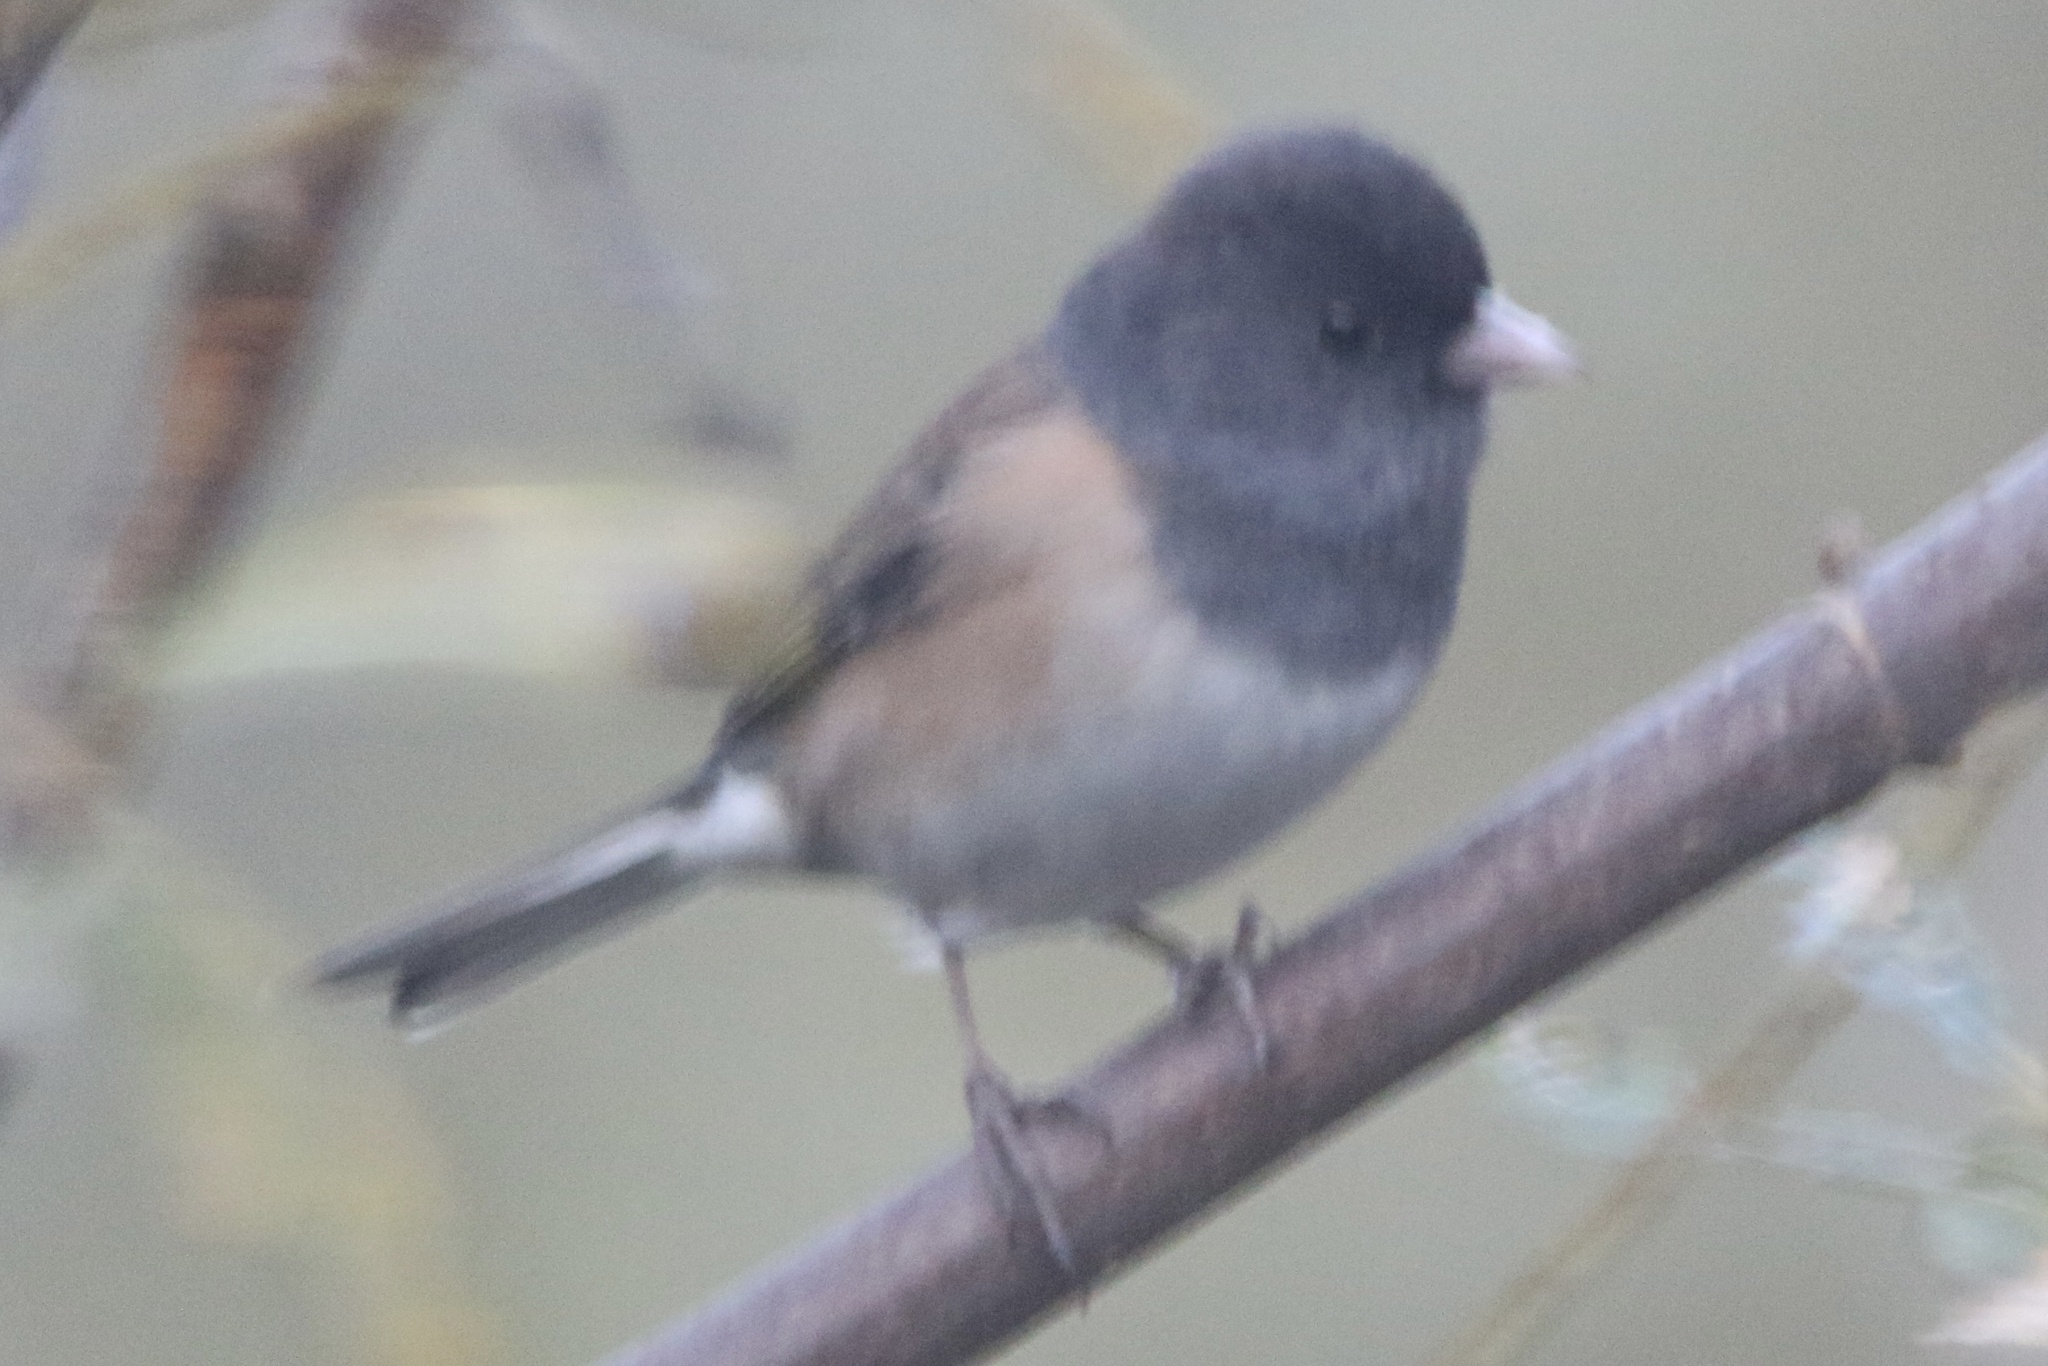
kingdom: Animalia
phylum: Chordata
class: Aves
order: Passeriformes
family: Passerellidae
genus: Junco
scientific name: Junco hyemalis
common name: Dark-eyed junco
